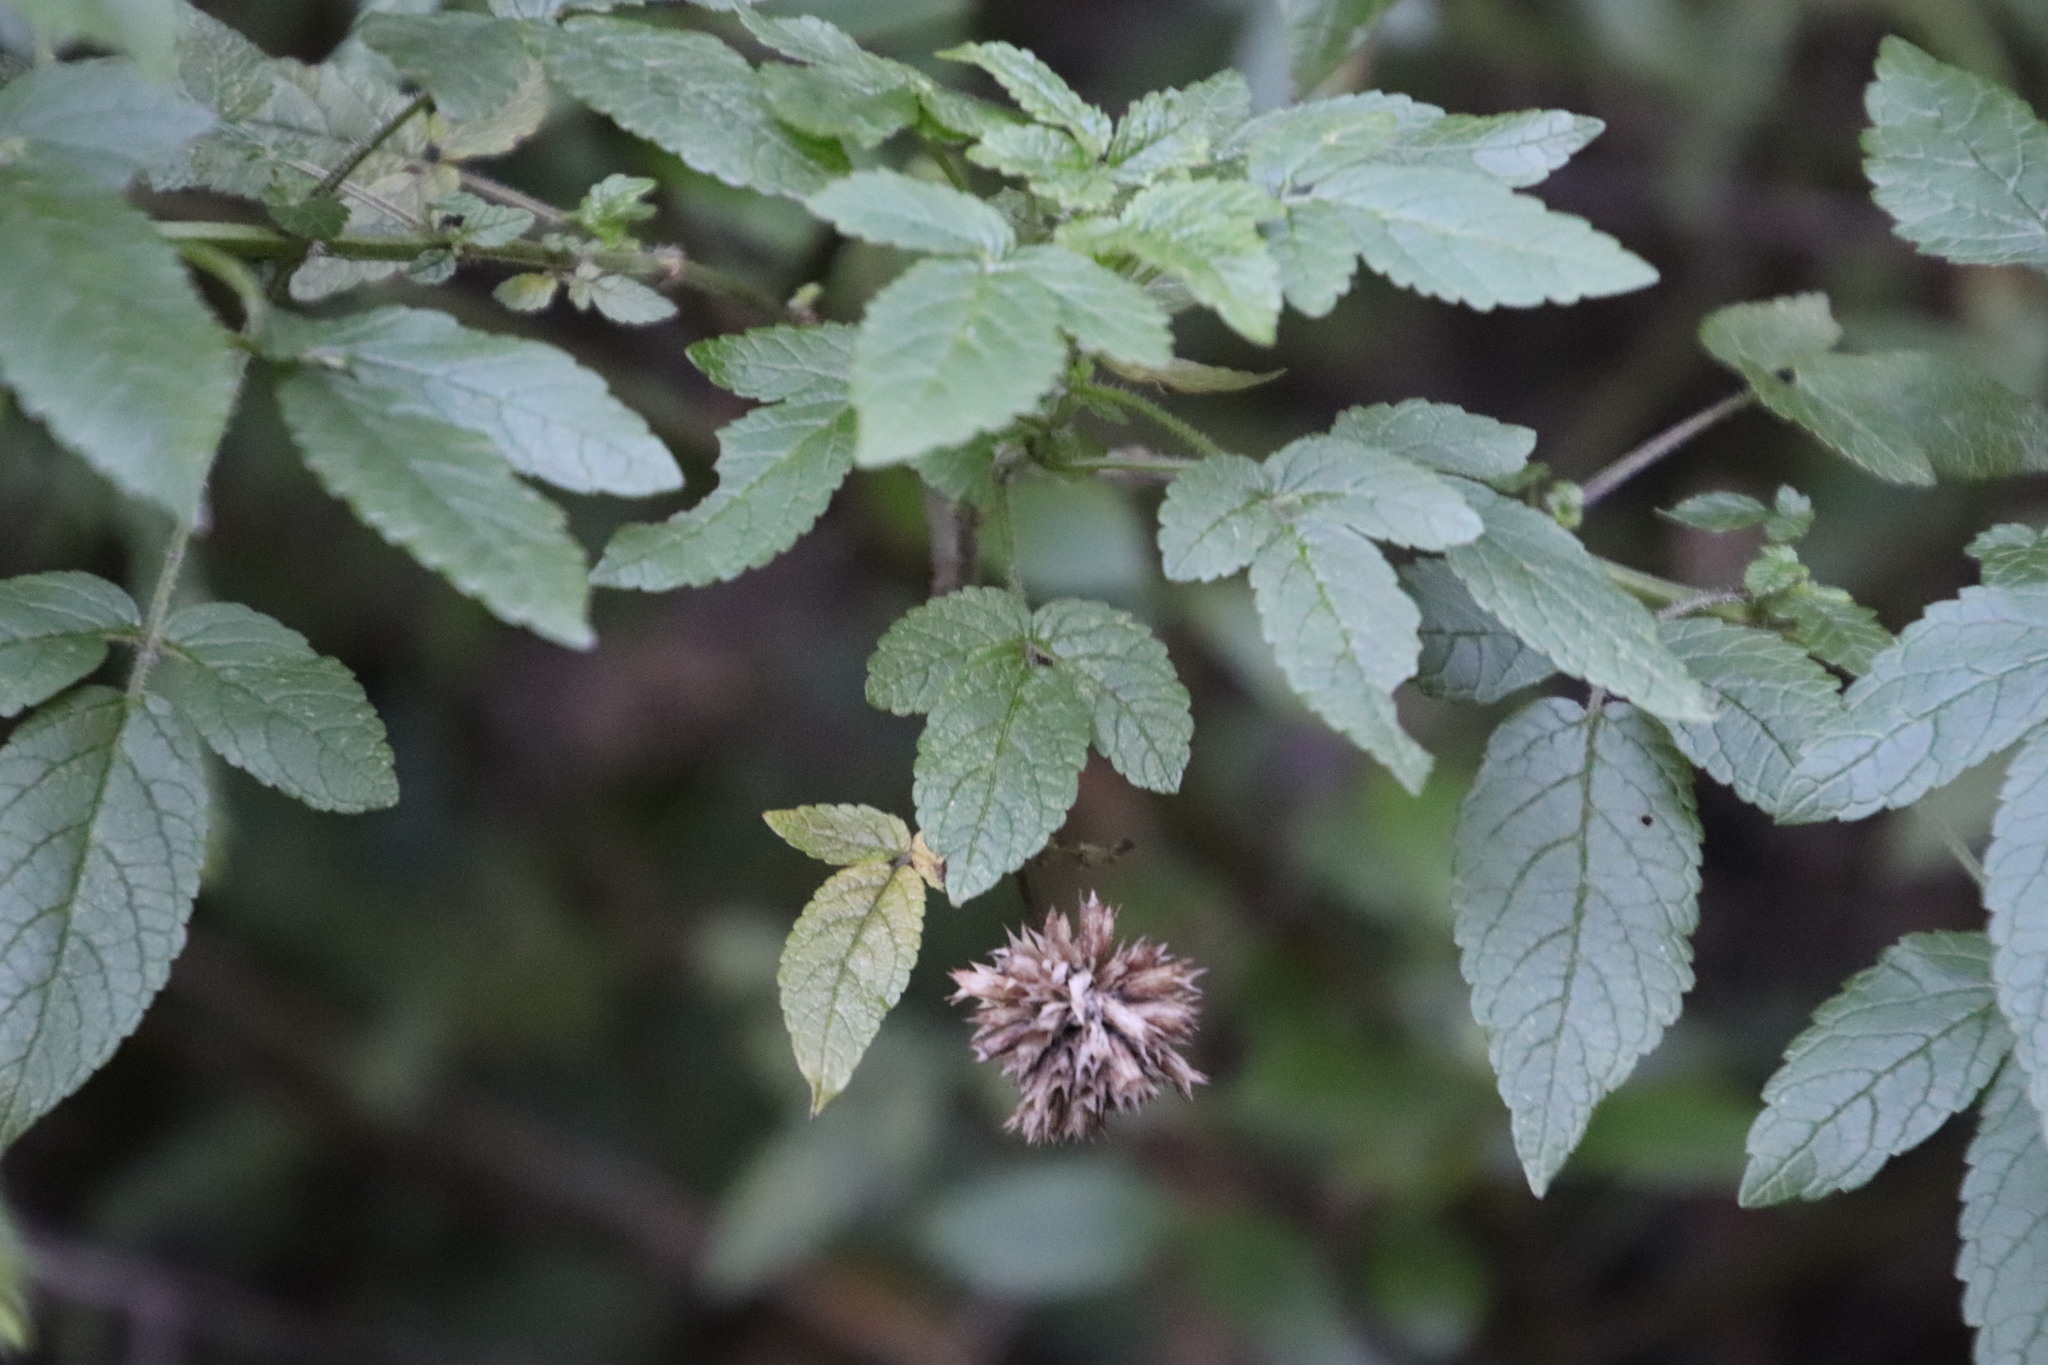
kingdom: Plantae
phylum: Tracheophyta
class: Magnoliopsida
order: Lamiales
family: Lamiaceae
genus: Cedronella
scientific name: Cedronella canariensis
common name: Canary islands balm
